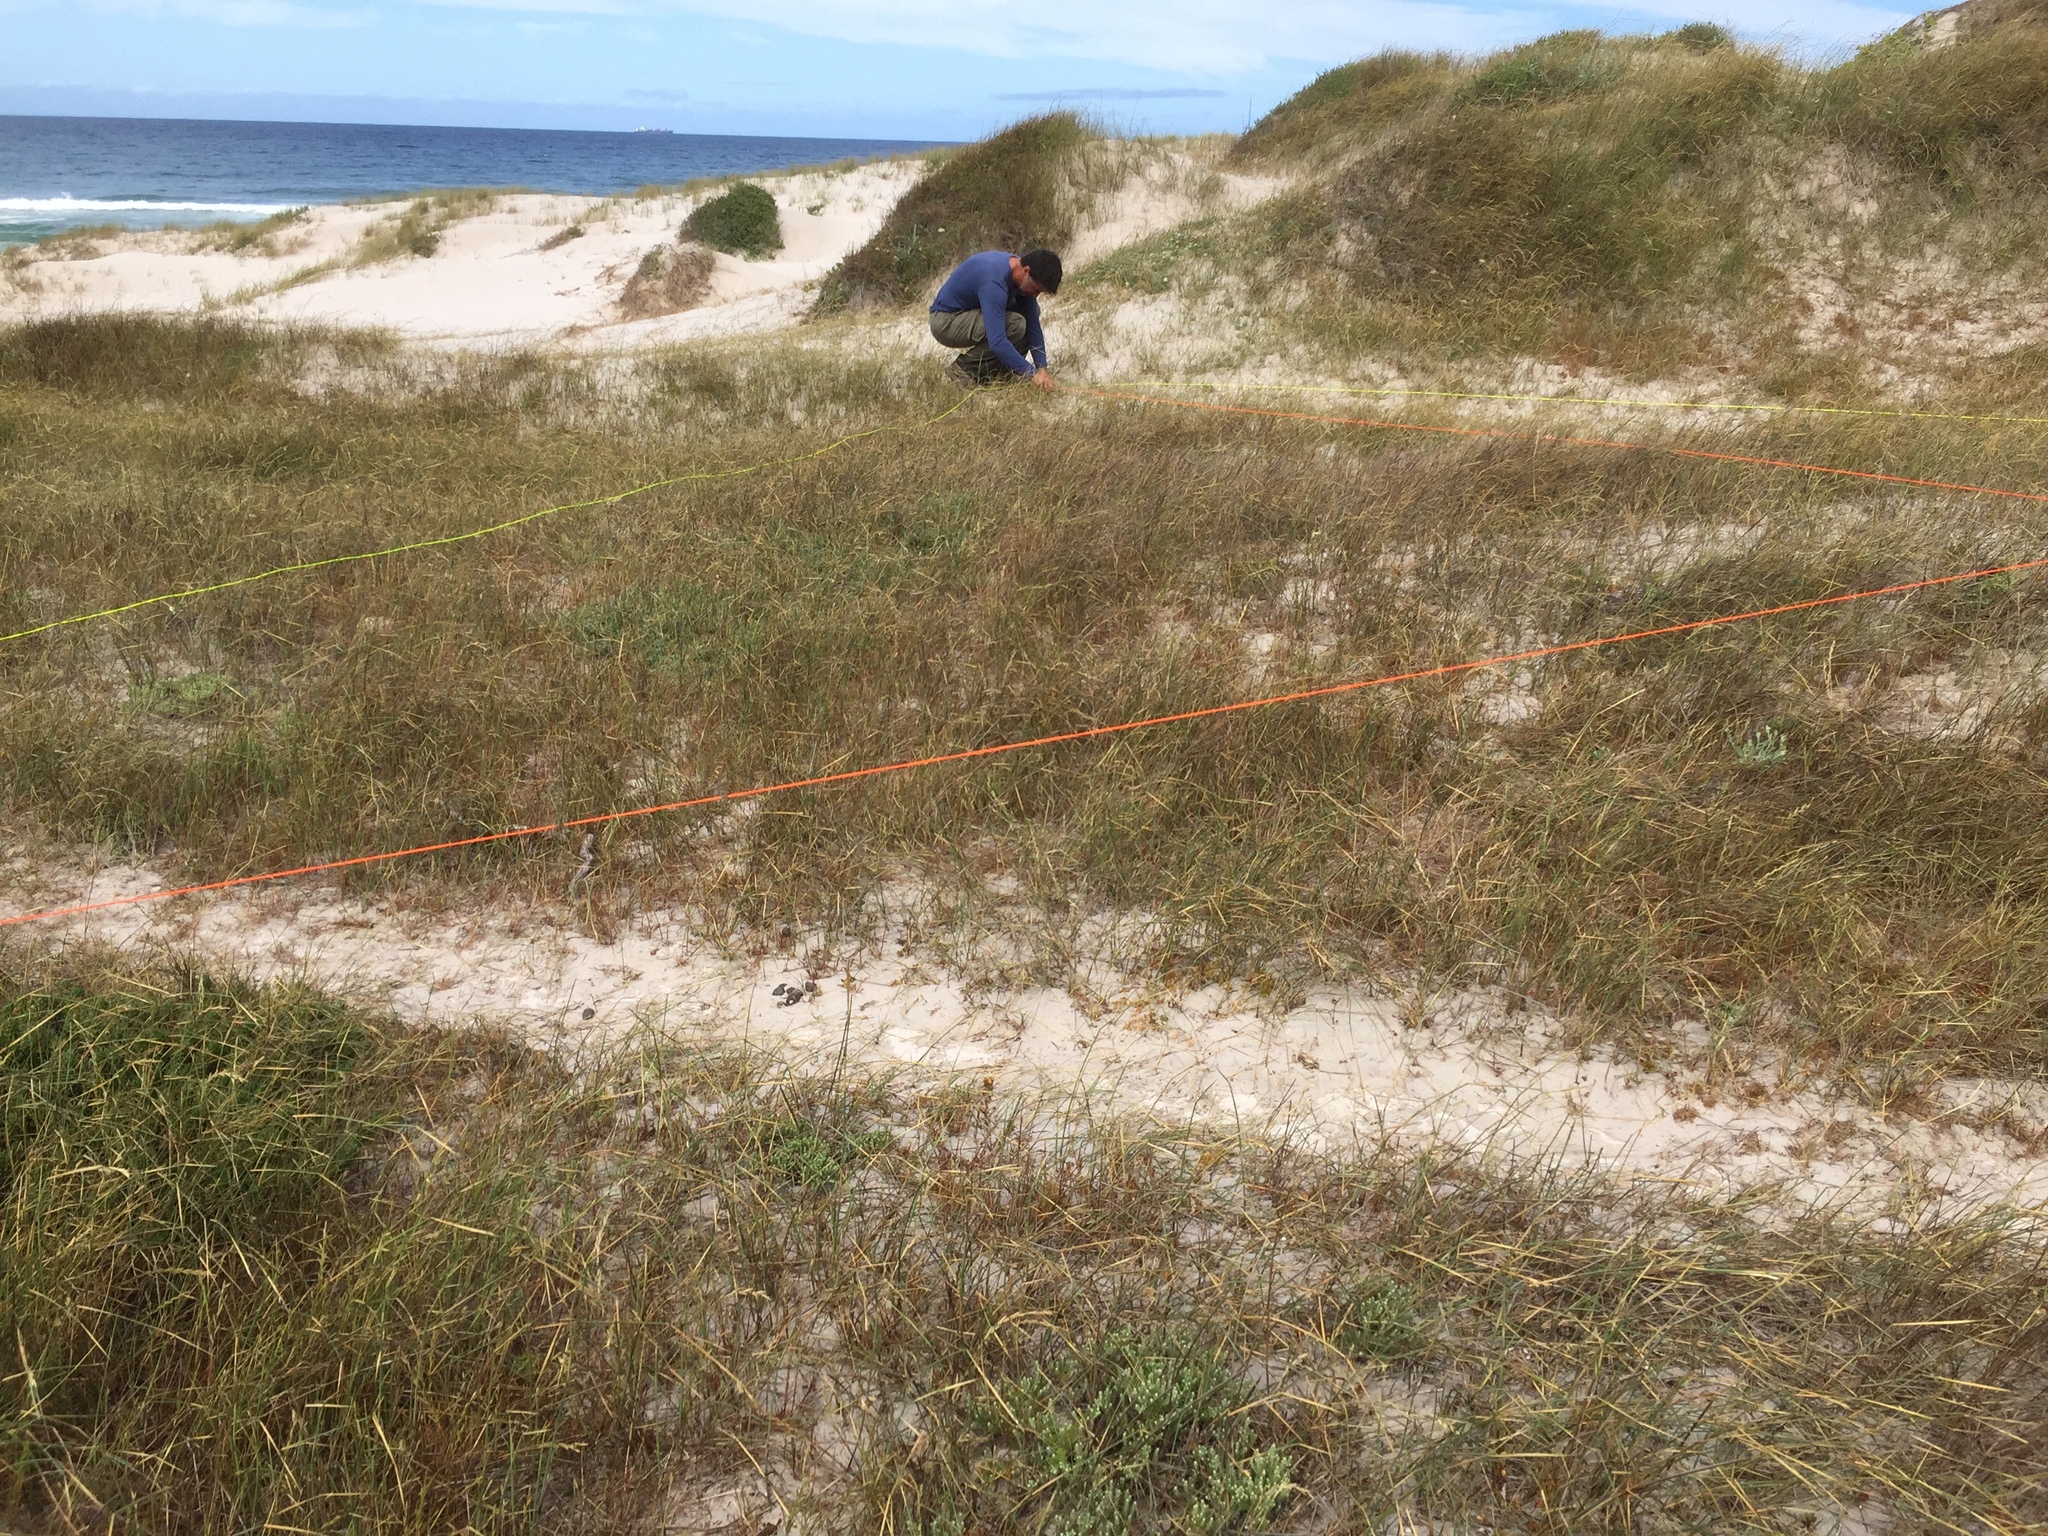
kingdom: Plantae
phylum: Tracheophyta
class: Liliopsida
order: Poales
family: Poaceae
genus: Ehrharta
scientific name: Ehrharta villosa
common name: Pyp grass
